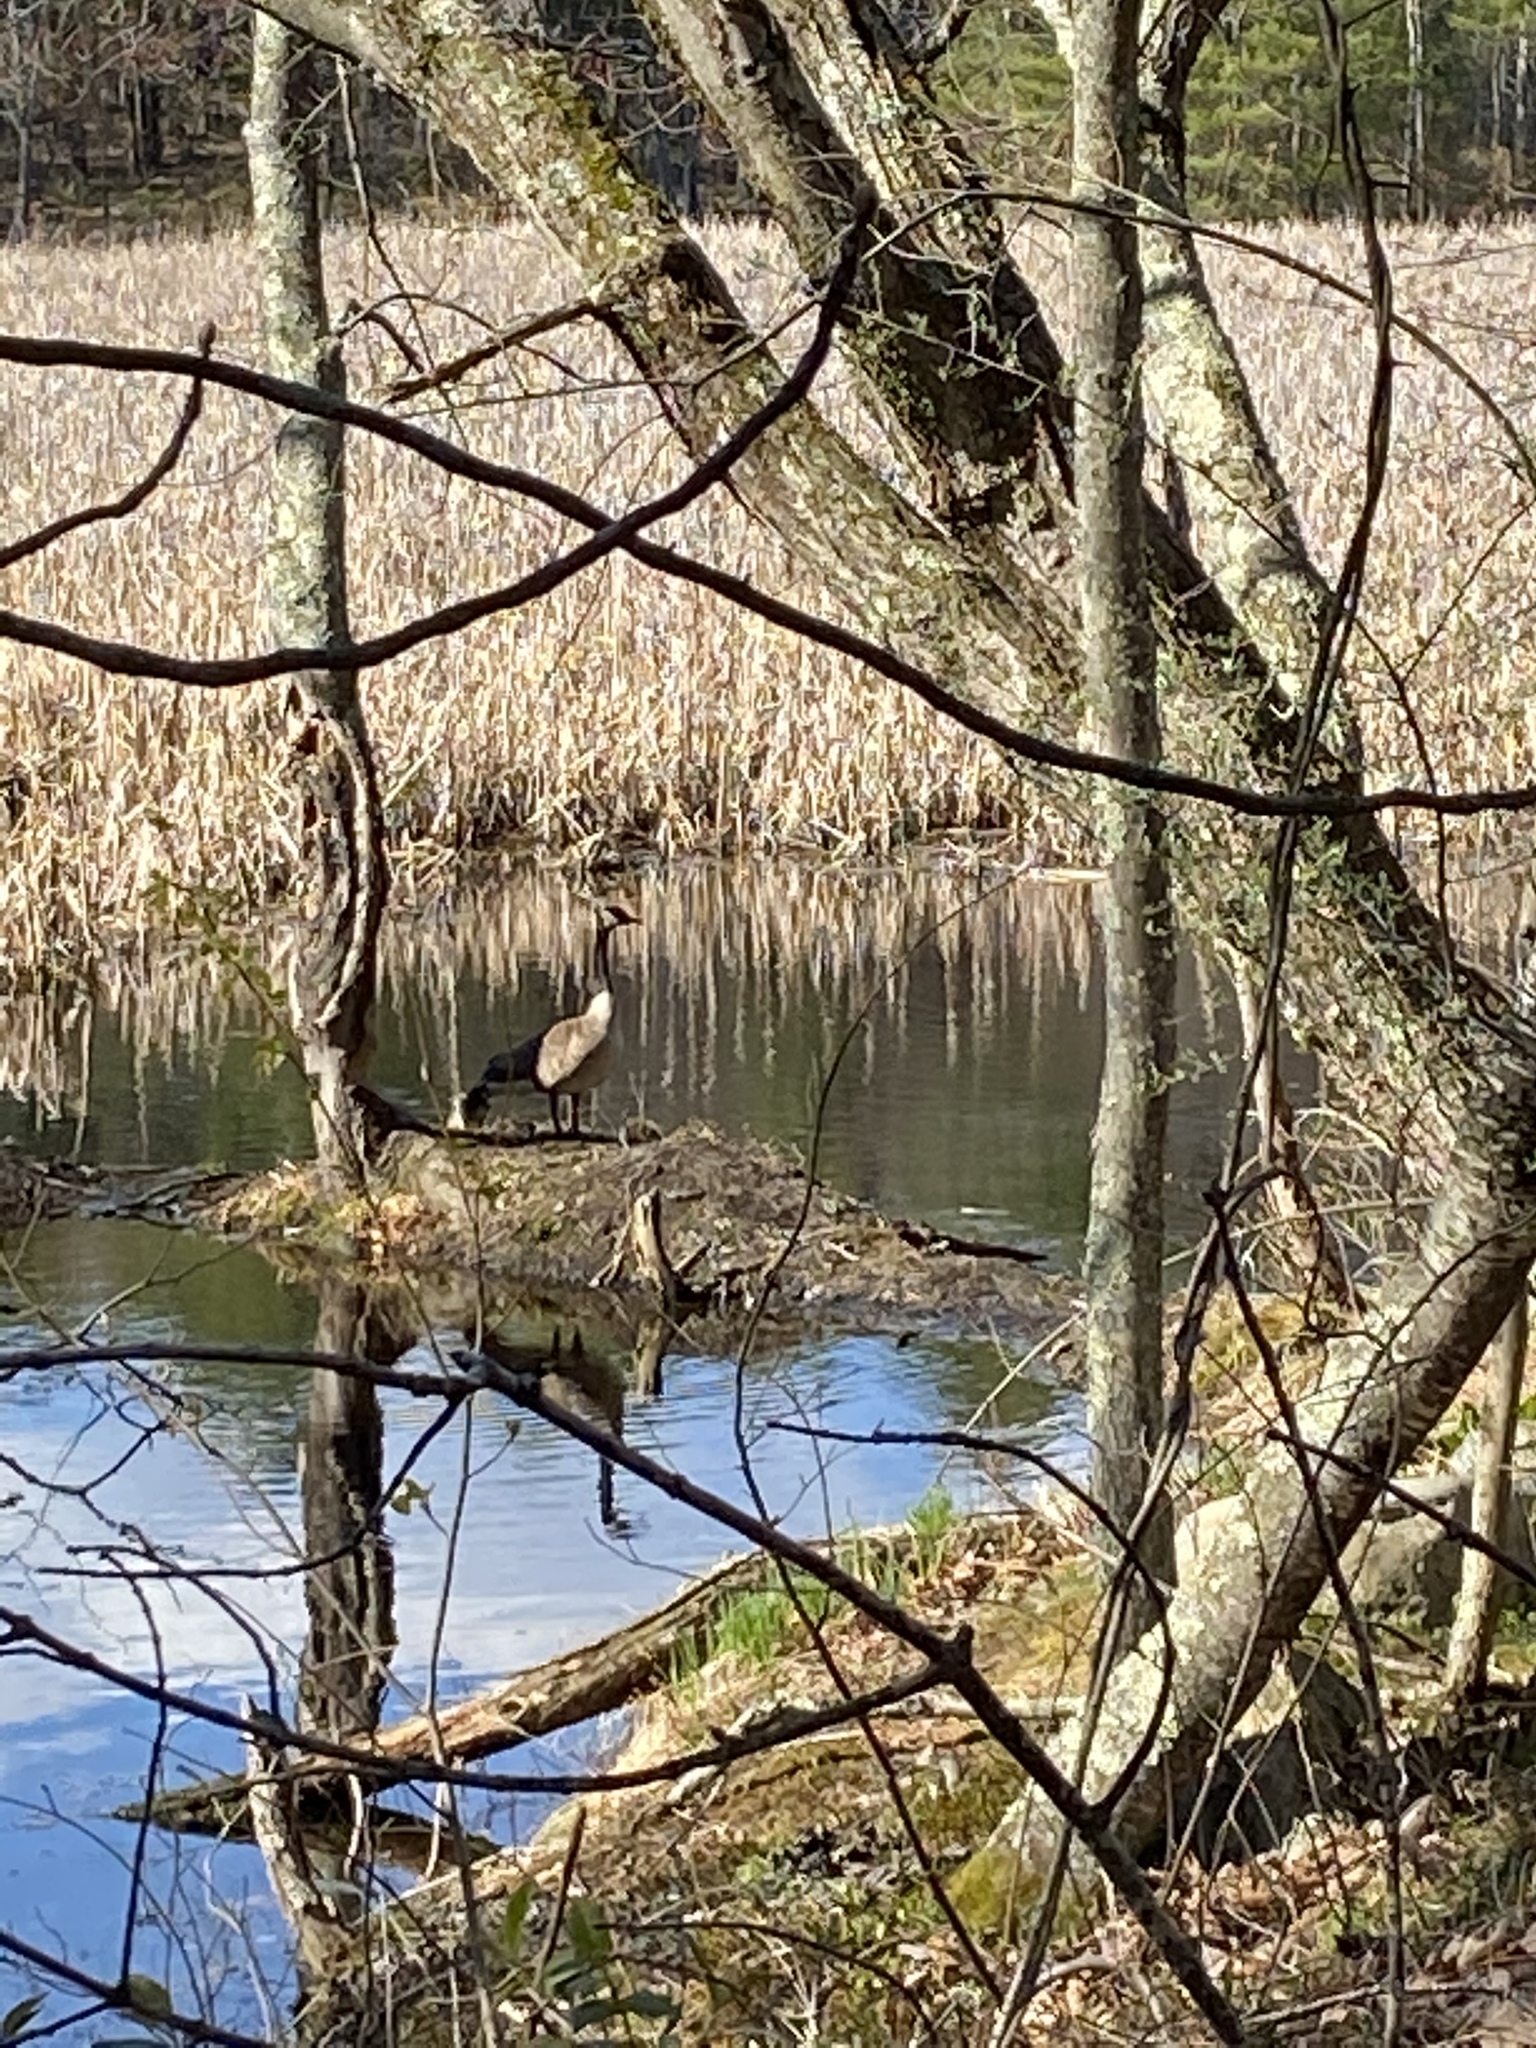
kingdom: Animalia
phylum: Chordata
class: Aves
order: Anseriformes
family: Anatidae
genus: Branta
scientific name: Branta canadensis
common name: Canada goose
